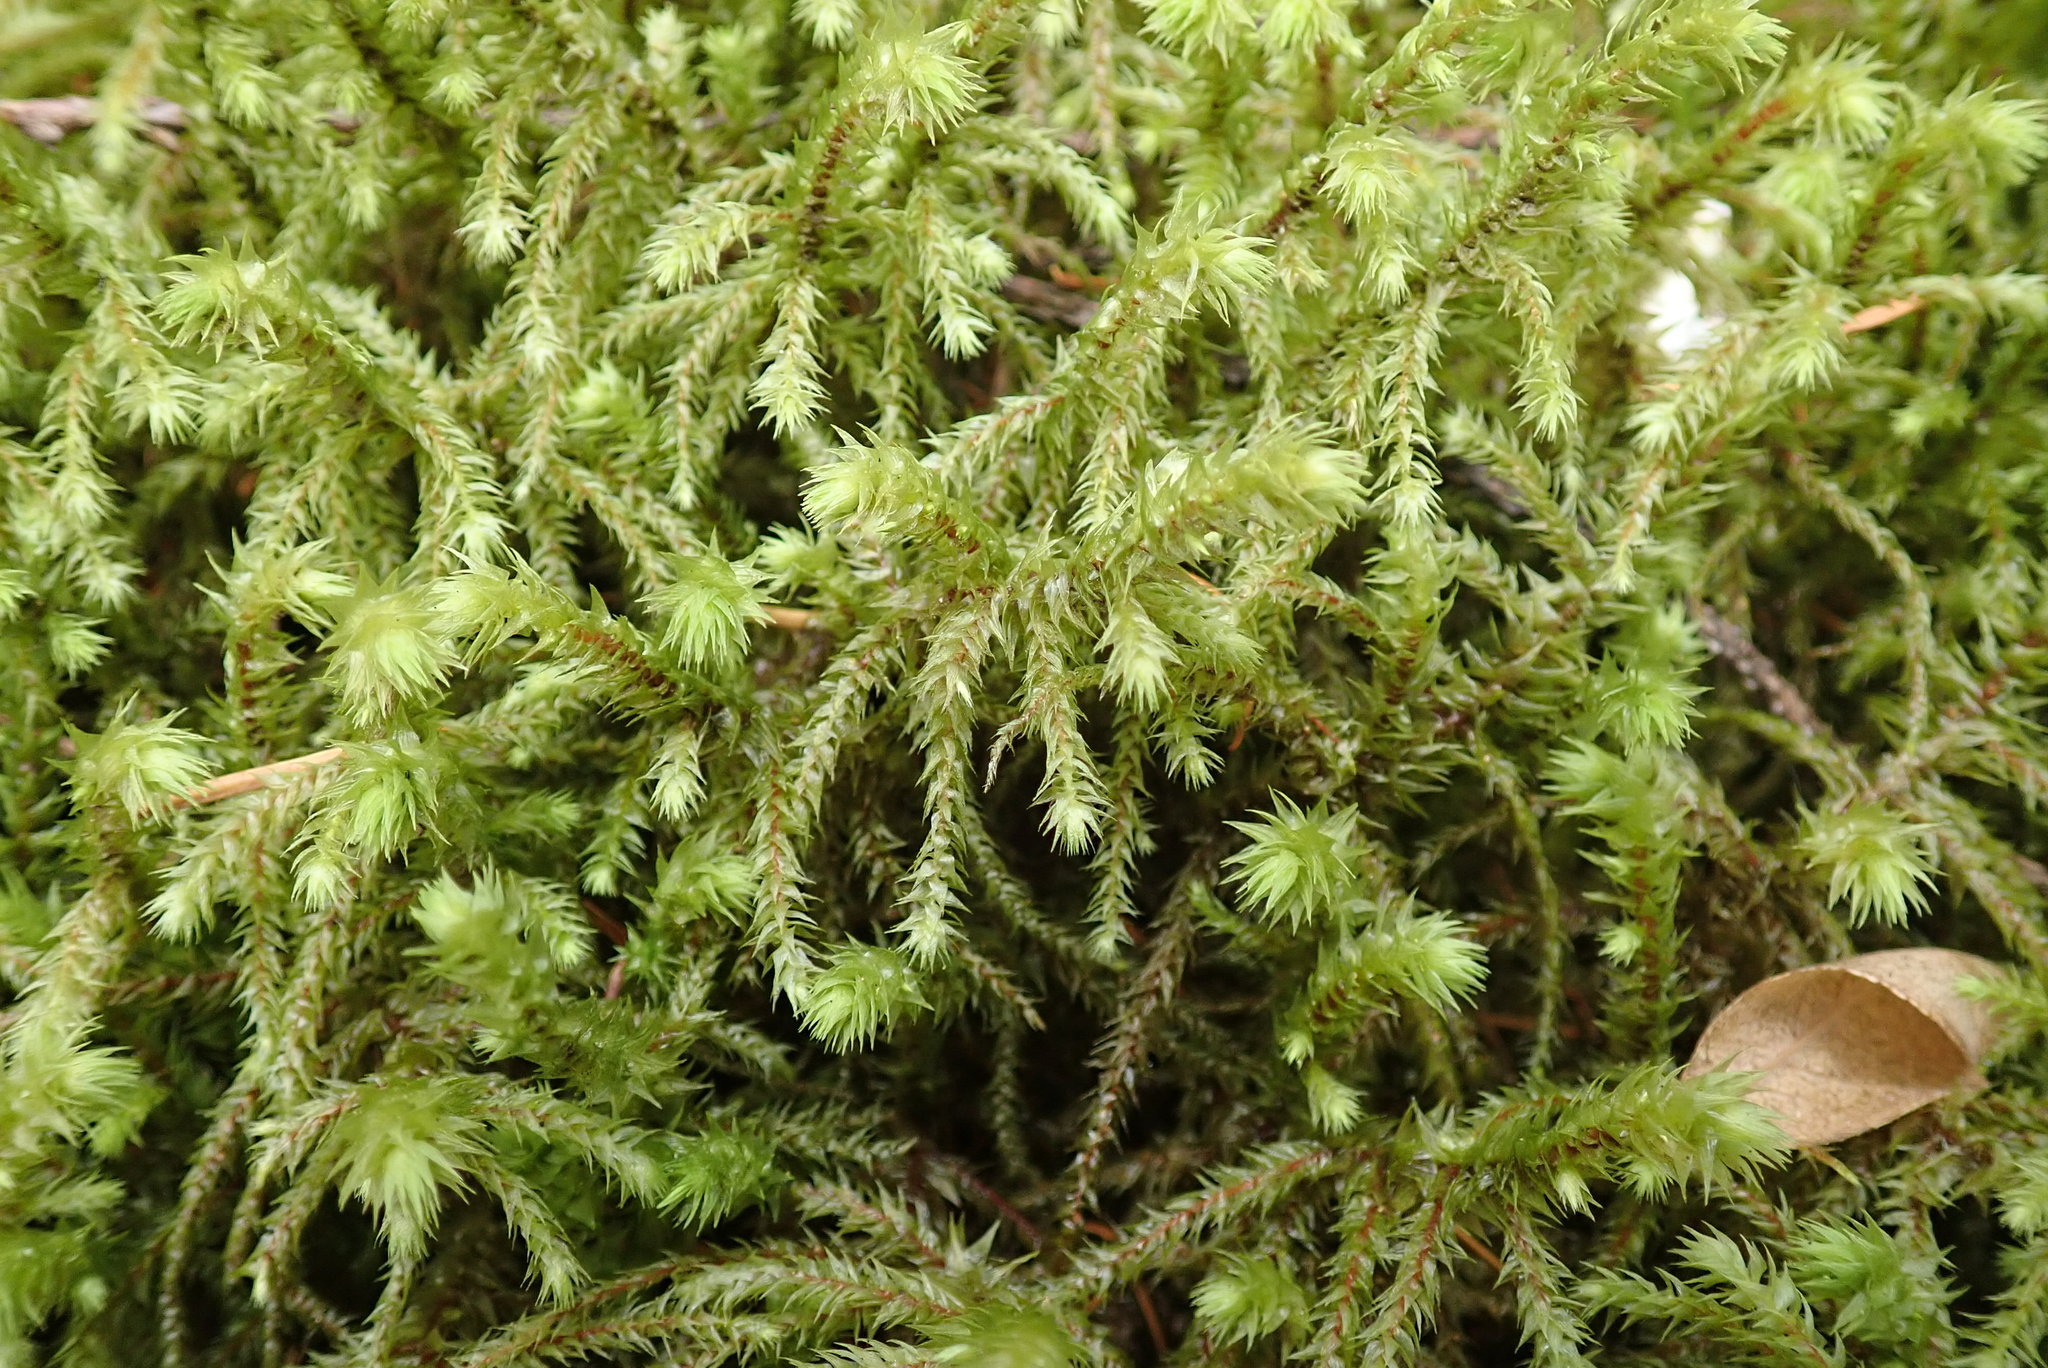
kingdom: Plantae
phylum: Bryophyta
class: Bryopsida
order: Hypnales
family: Hylocomiaceae
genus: Hylocomiadelphus
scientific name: Hylocomiadelphus triquetrus
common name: Rough goose neck moss
